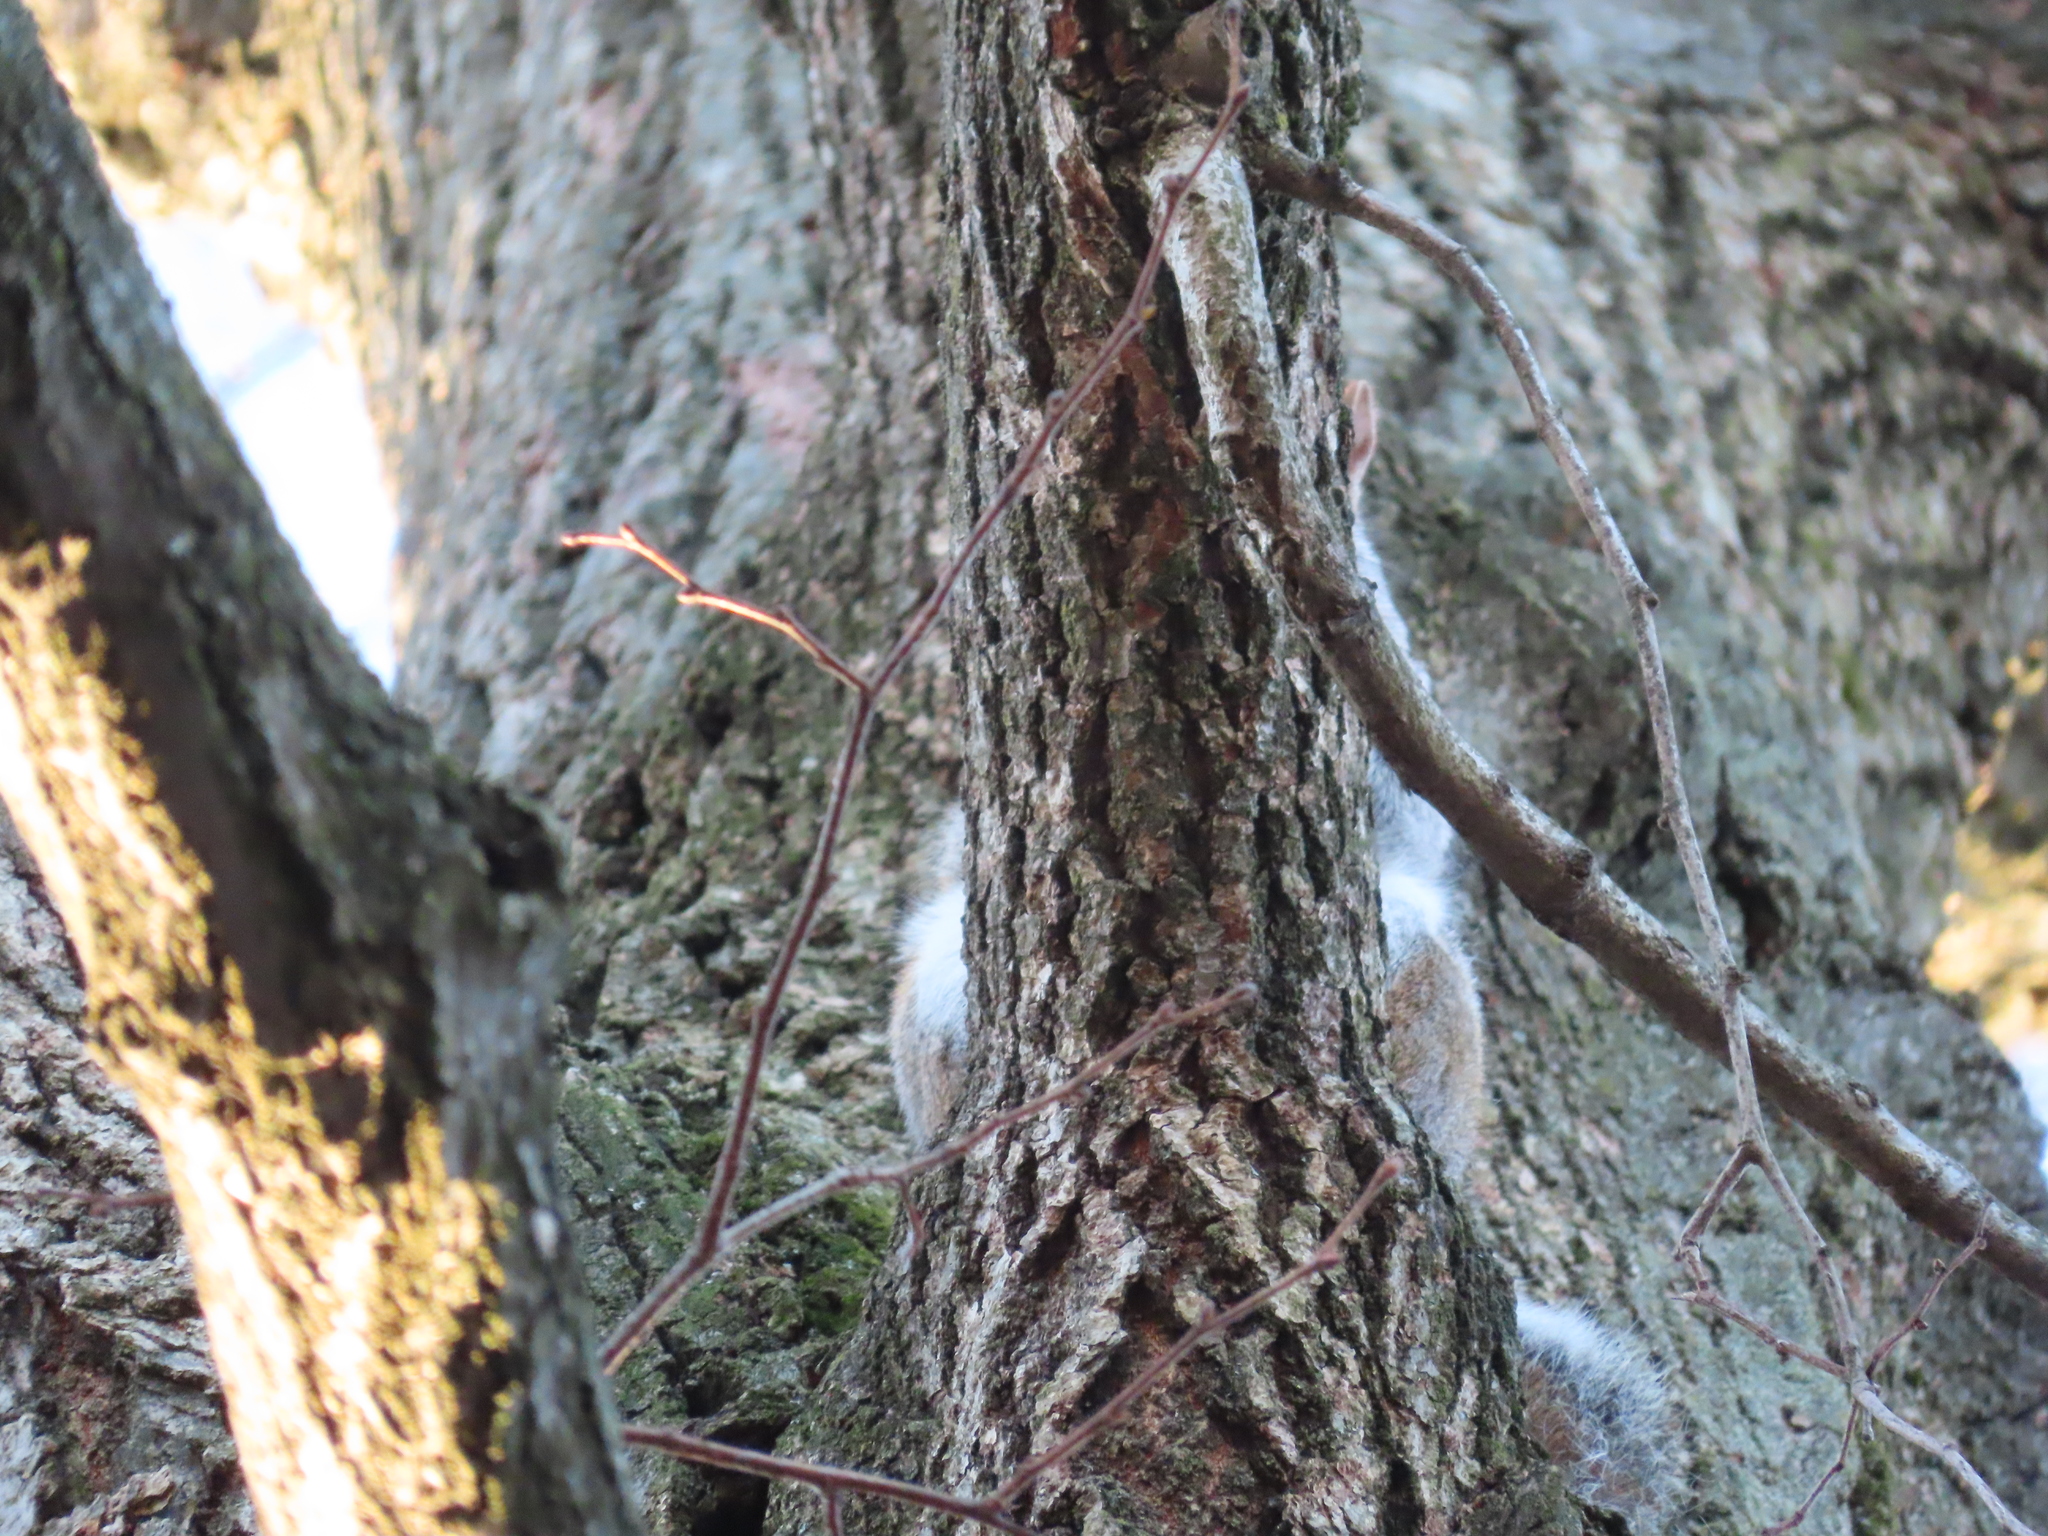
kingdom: Animalia
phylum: Chordata
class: Mammalia
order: Rodentia
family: Sciuridae
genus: Sciurus
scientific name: Sciurus carolinensis
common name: Eastern gray squirrel
